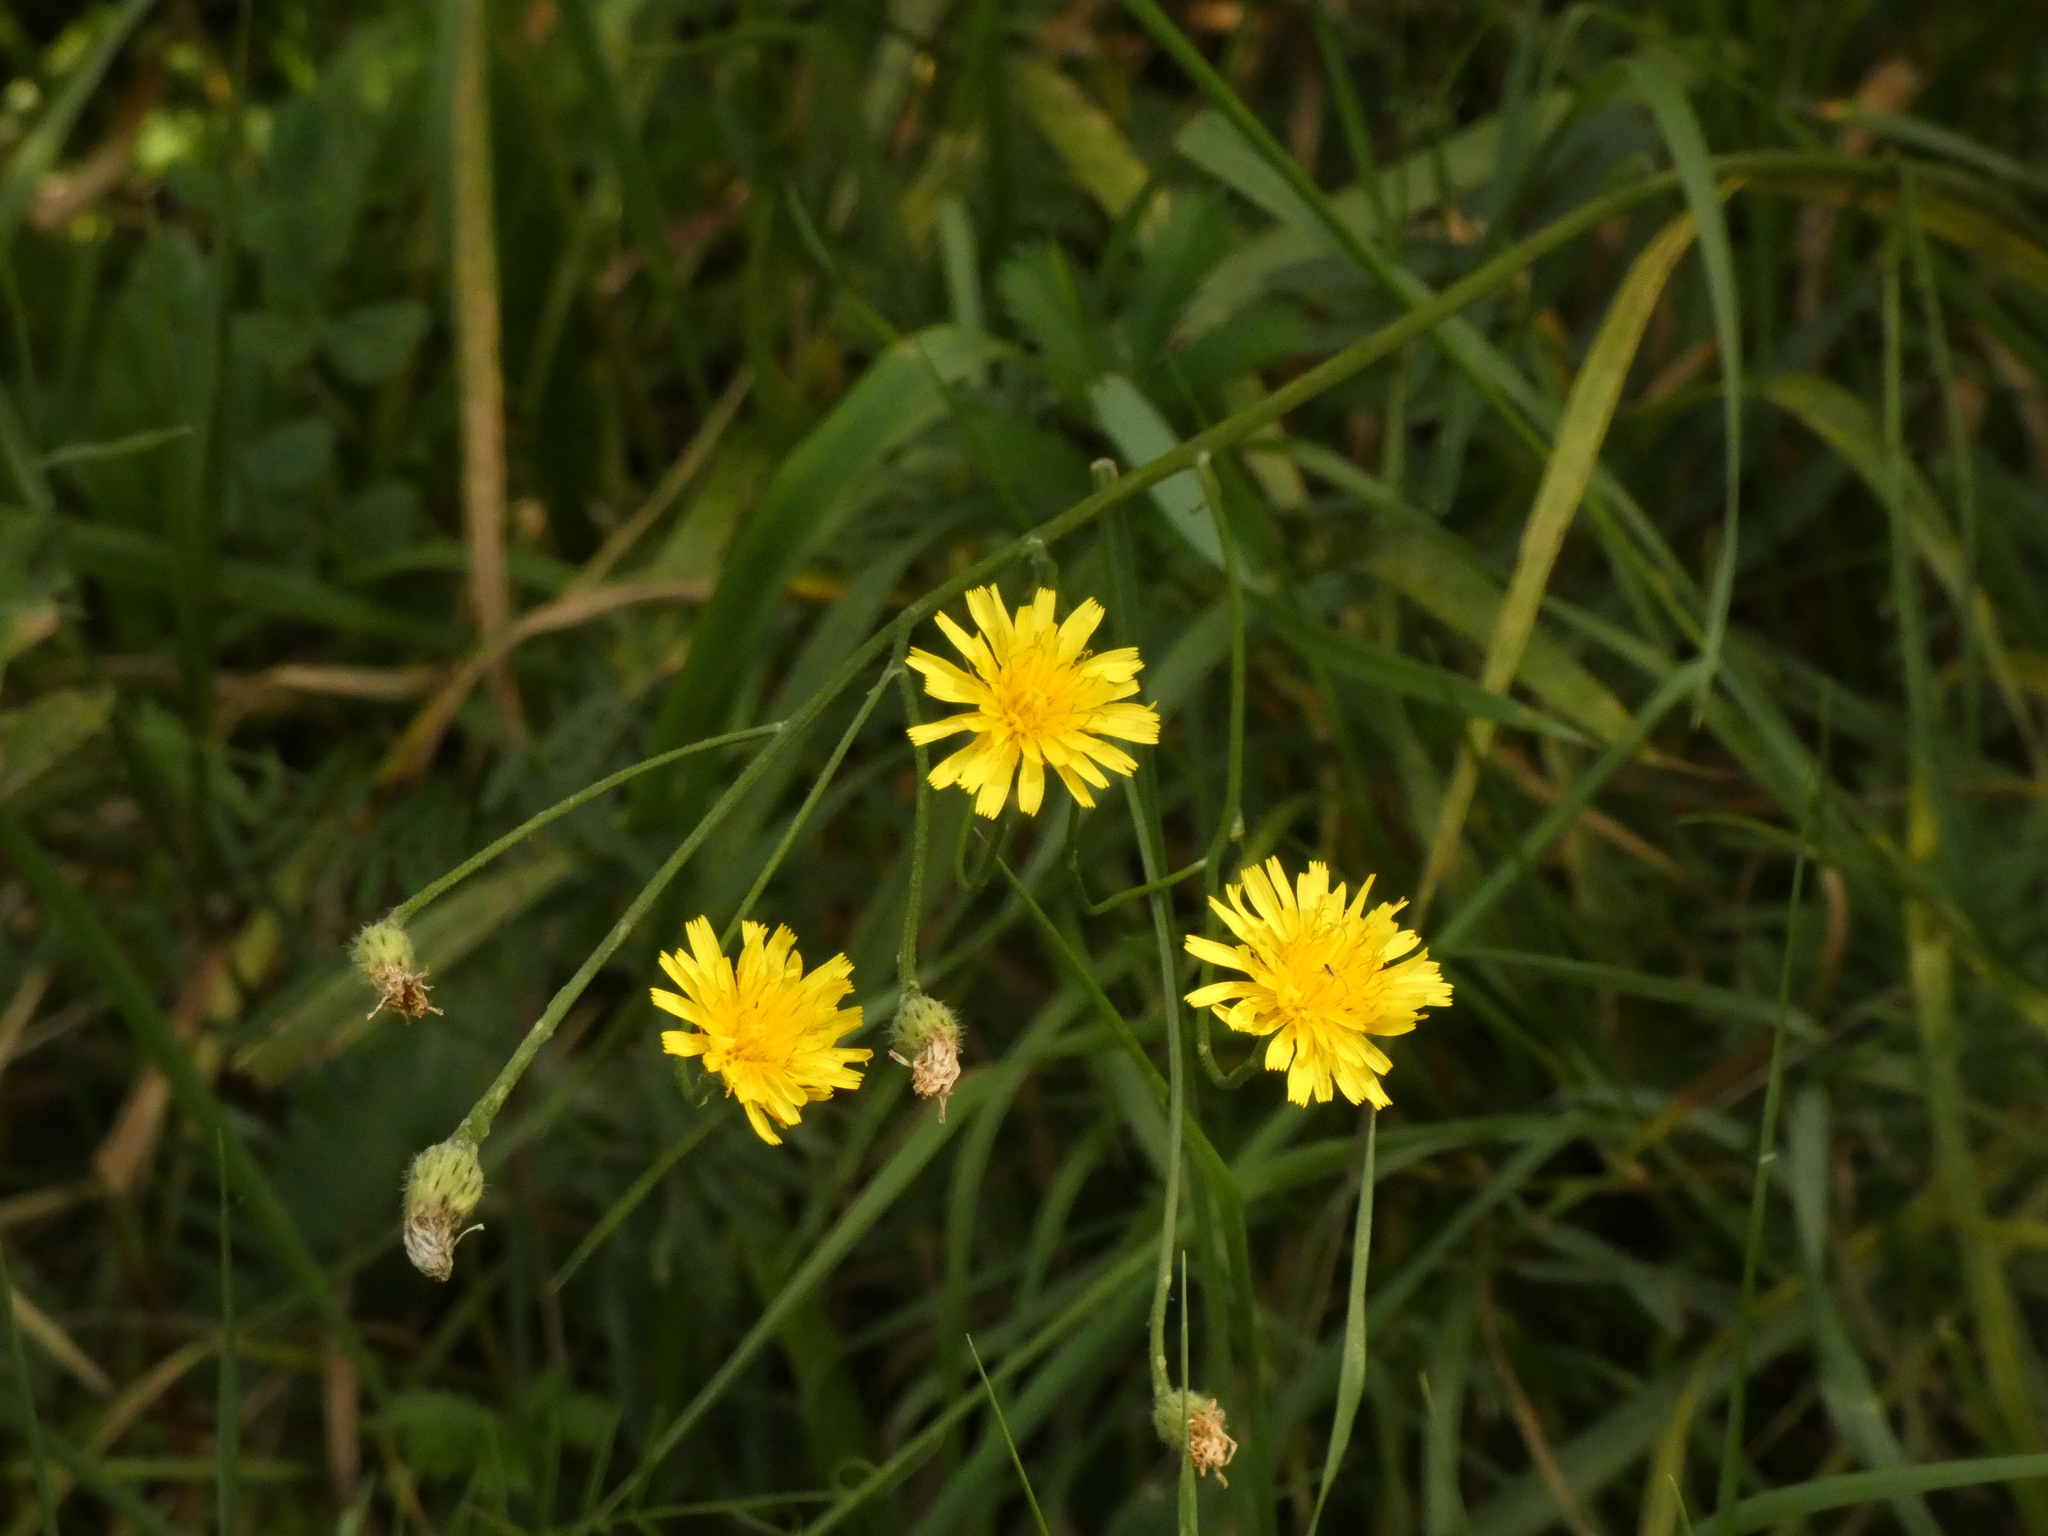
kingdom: Plantae
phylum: Tracheophyta
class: Magnoliopsida
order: Asterales
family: Asteraceae
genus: Scorzoneroides
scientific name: Scorzoneroides autumnalis
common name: Autumn hawkbit
